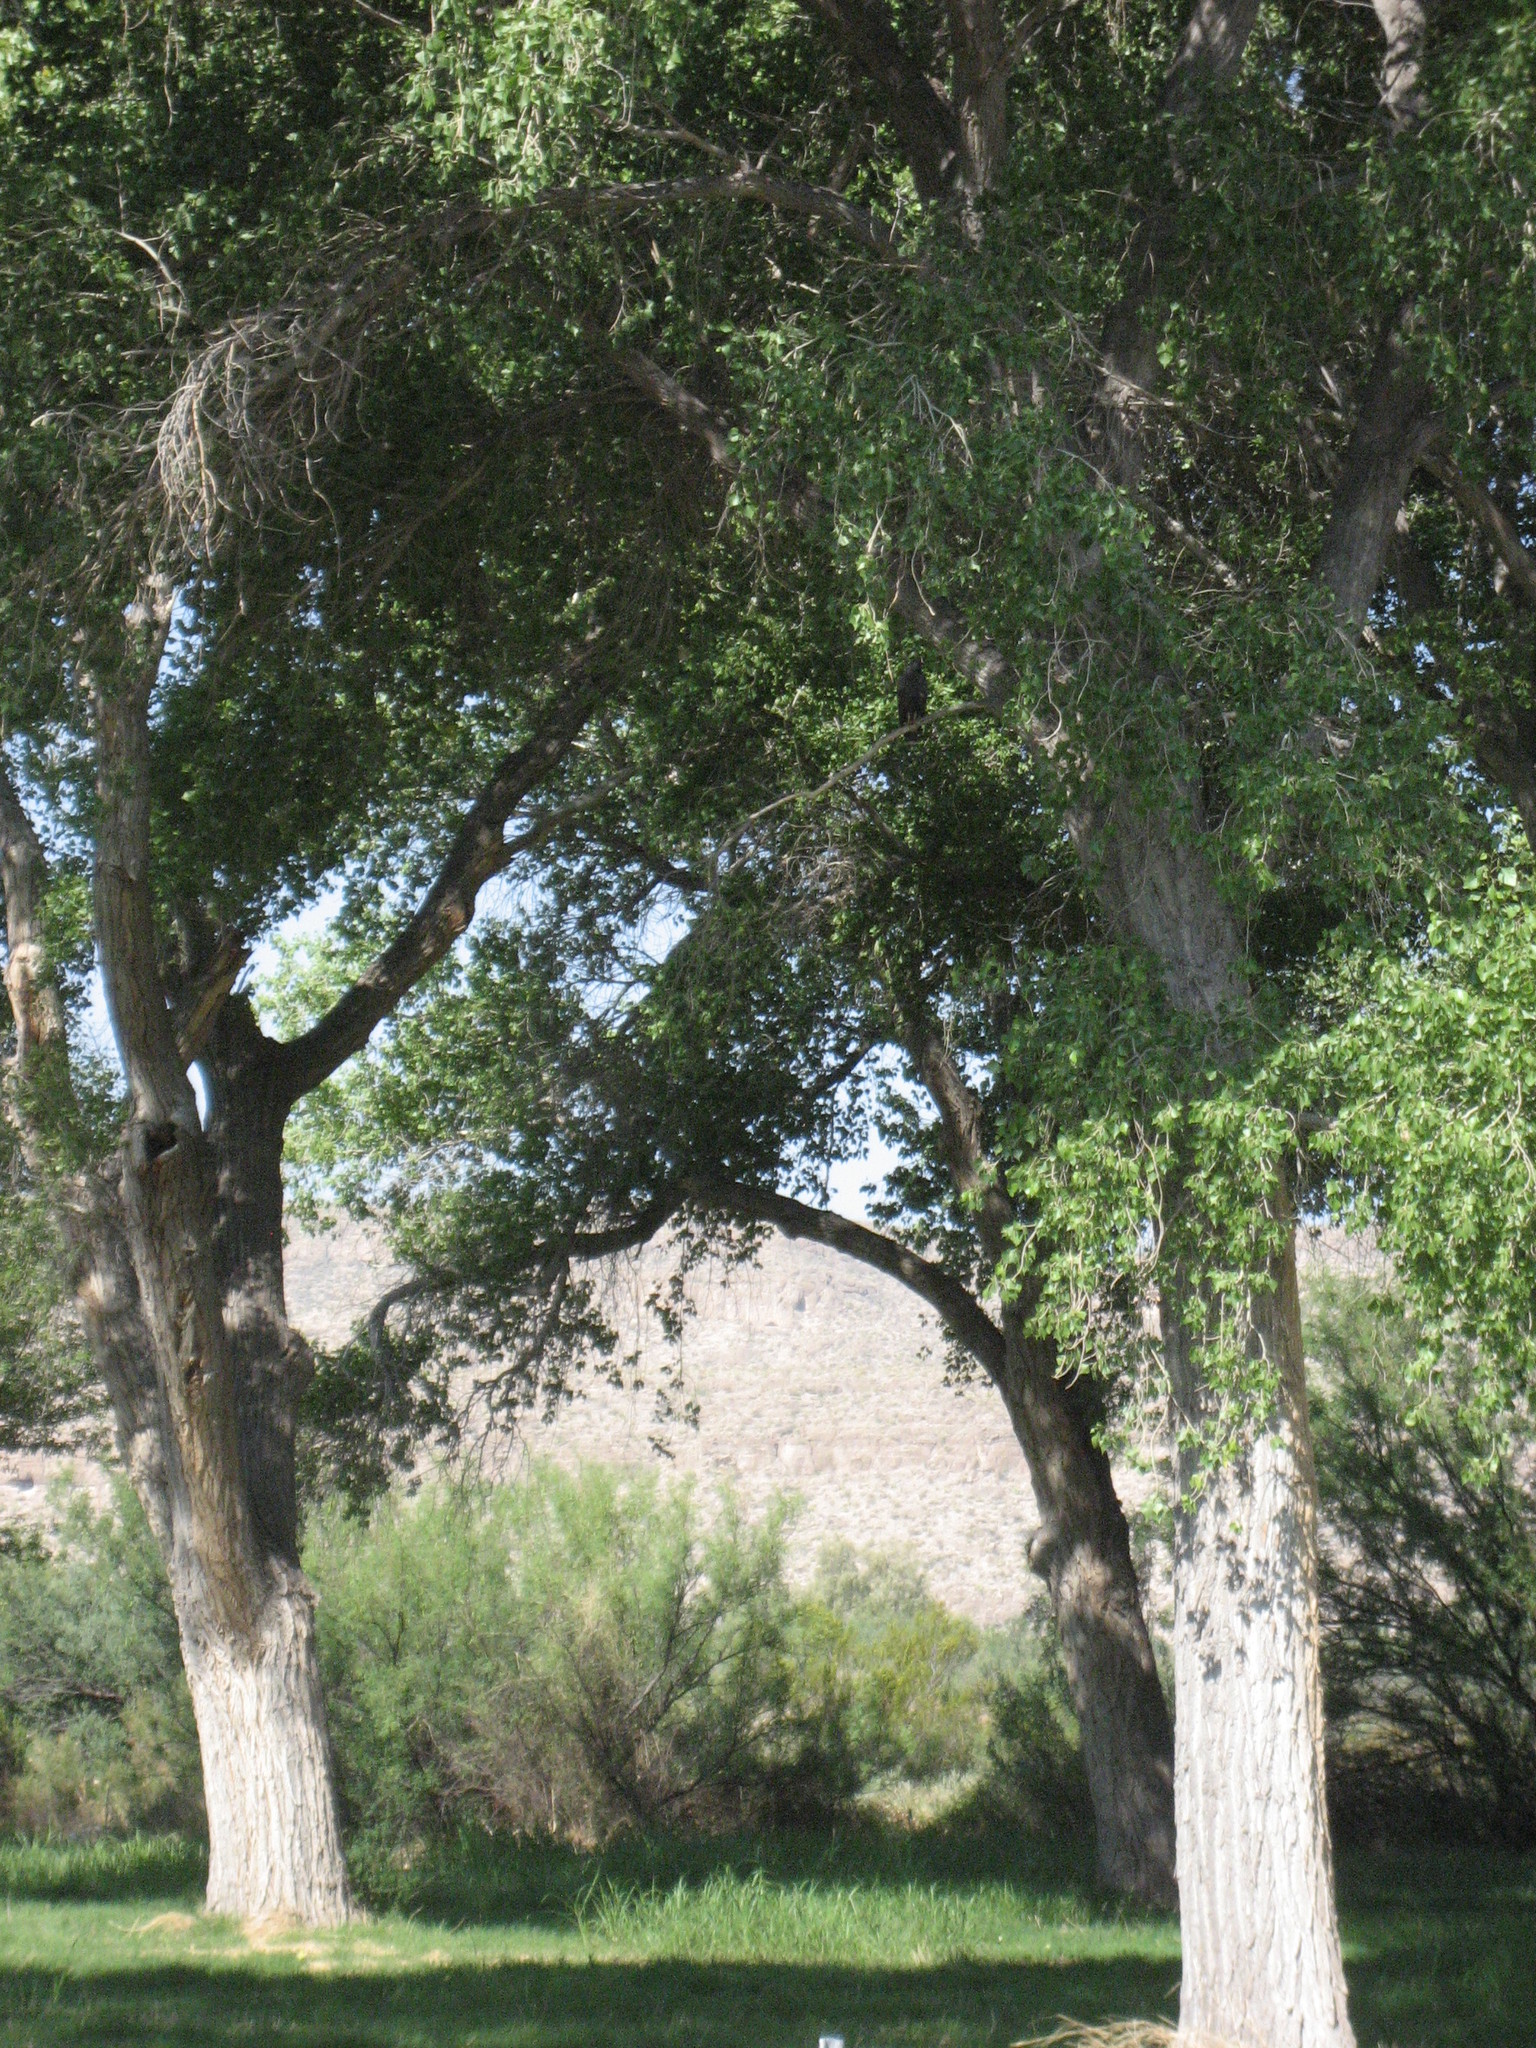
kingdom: Animalia
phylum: Chordata
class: Aves
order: Accipitriformes
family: Accipitridae
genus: Buteogallus
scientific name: Buteogallus anthracinus
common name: Common black hawk
